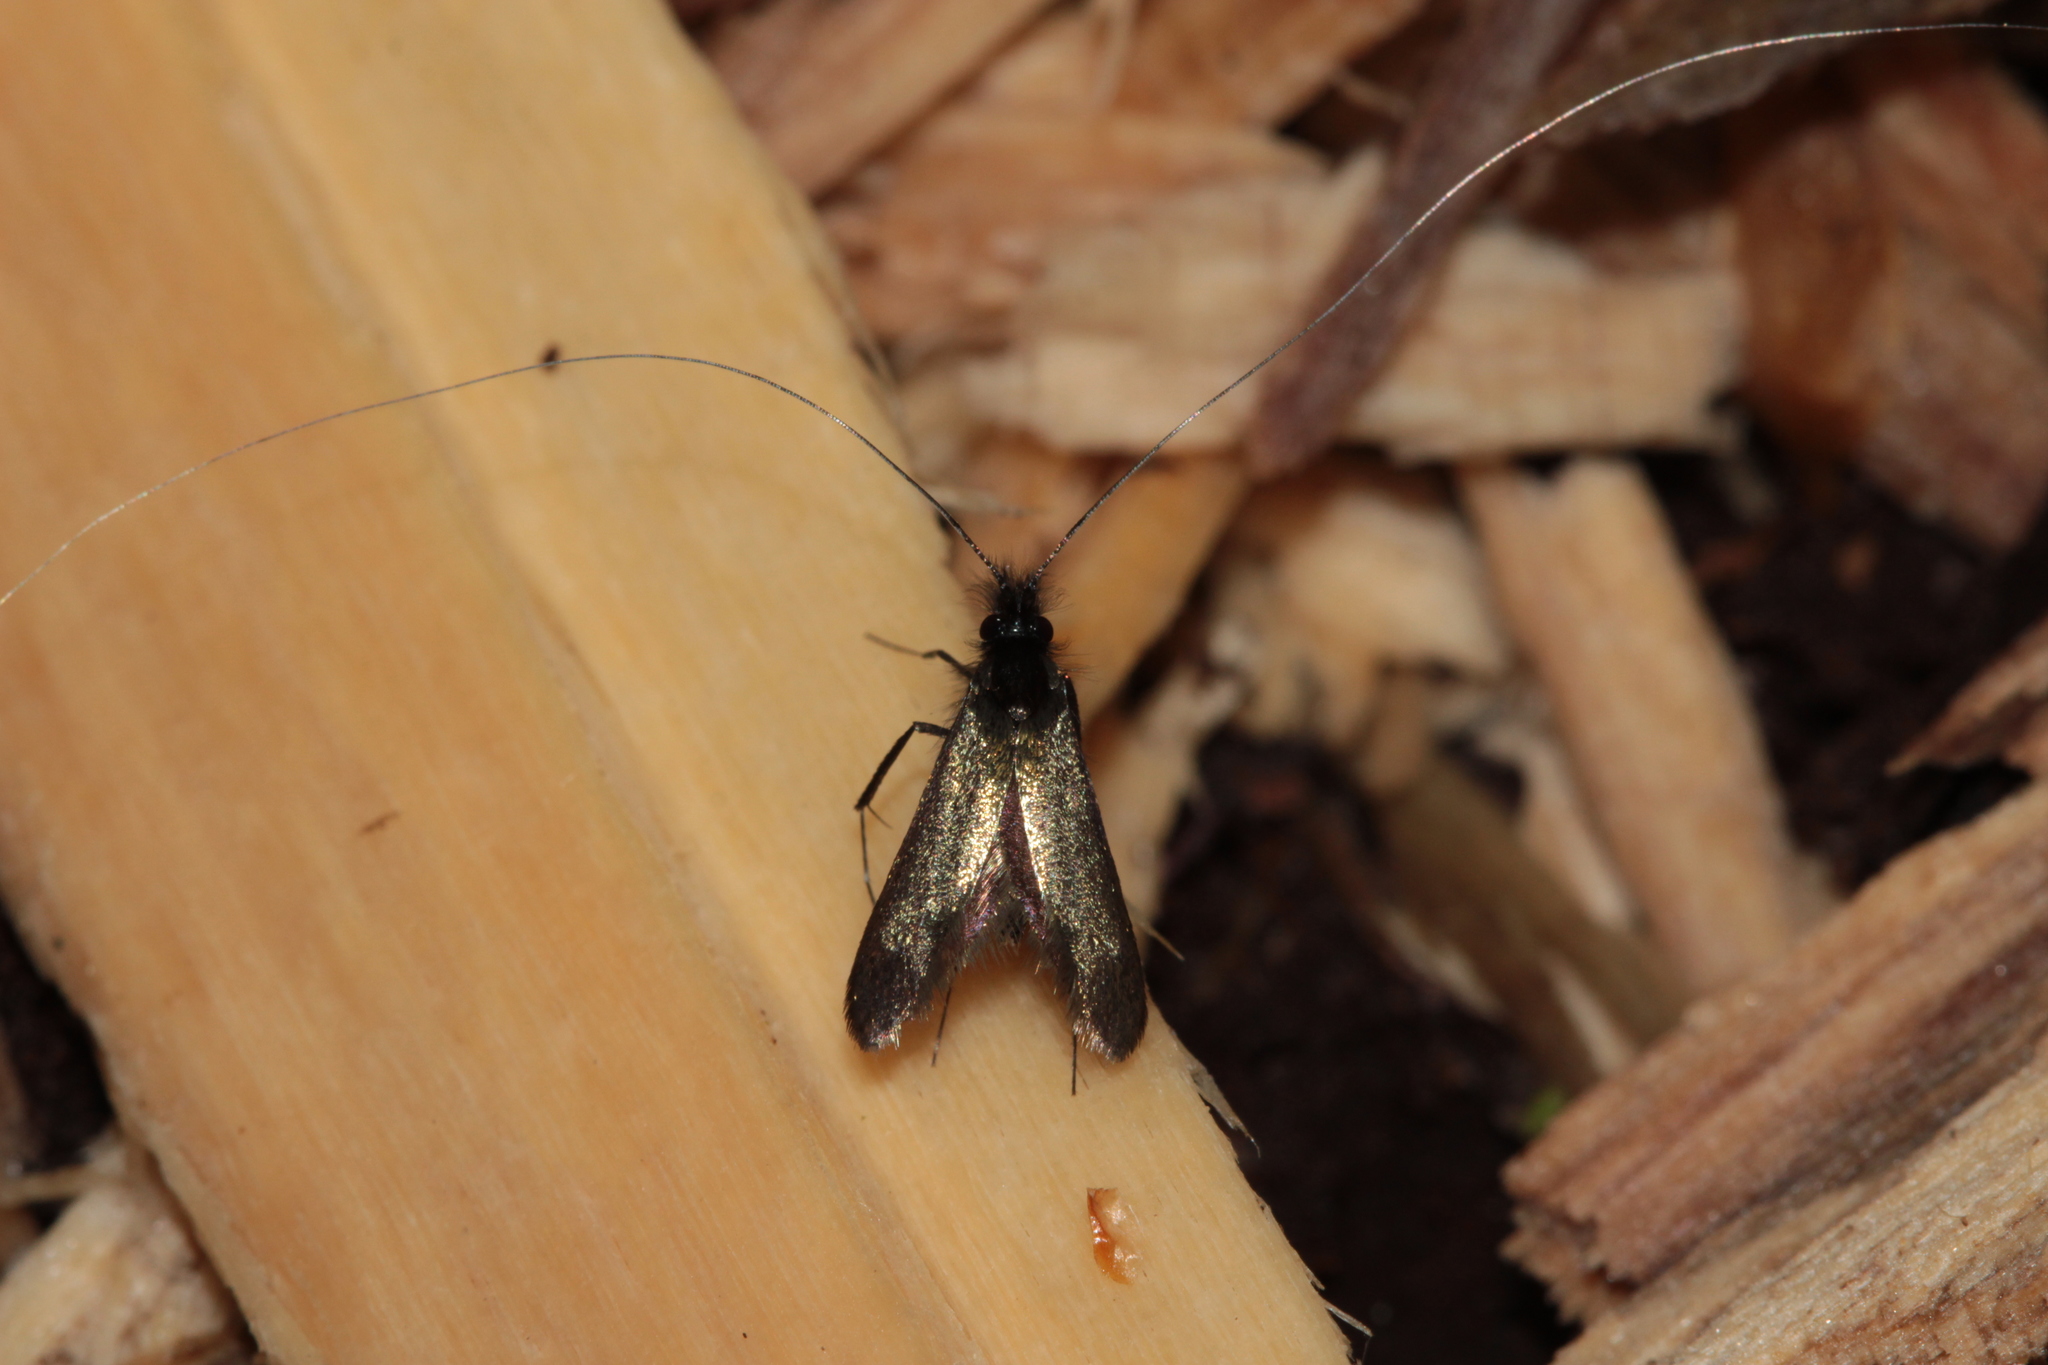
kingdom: Animalia
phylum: Arthropoda
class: Insecta
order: Lepidoptera
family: Adelidae
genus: Adela
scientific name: Adela viridella
